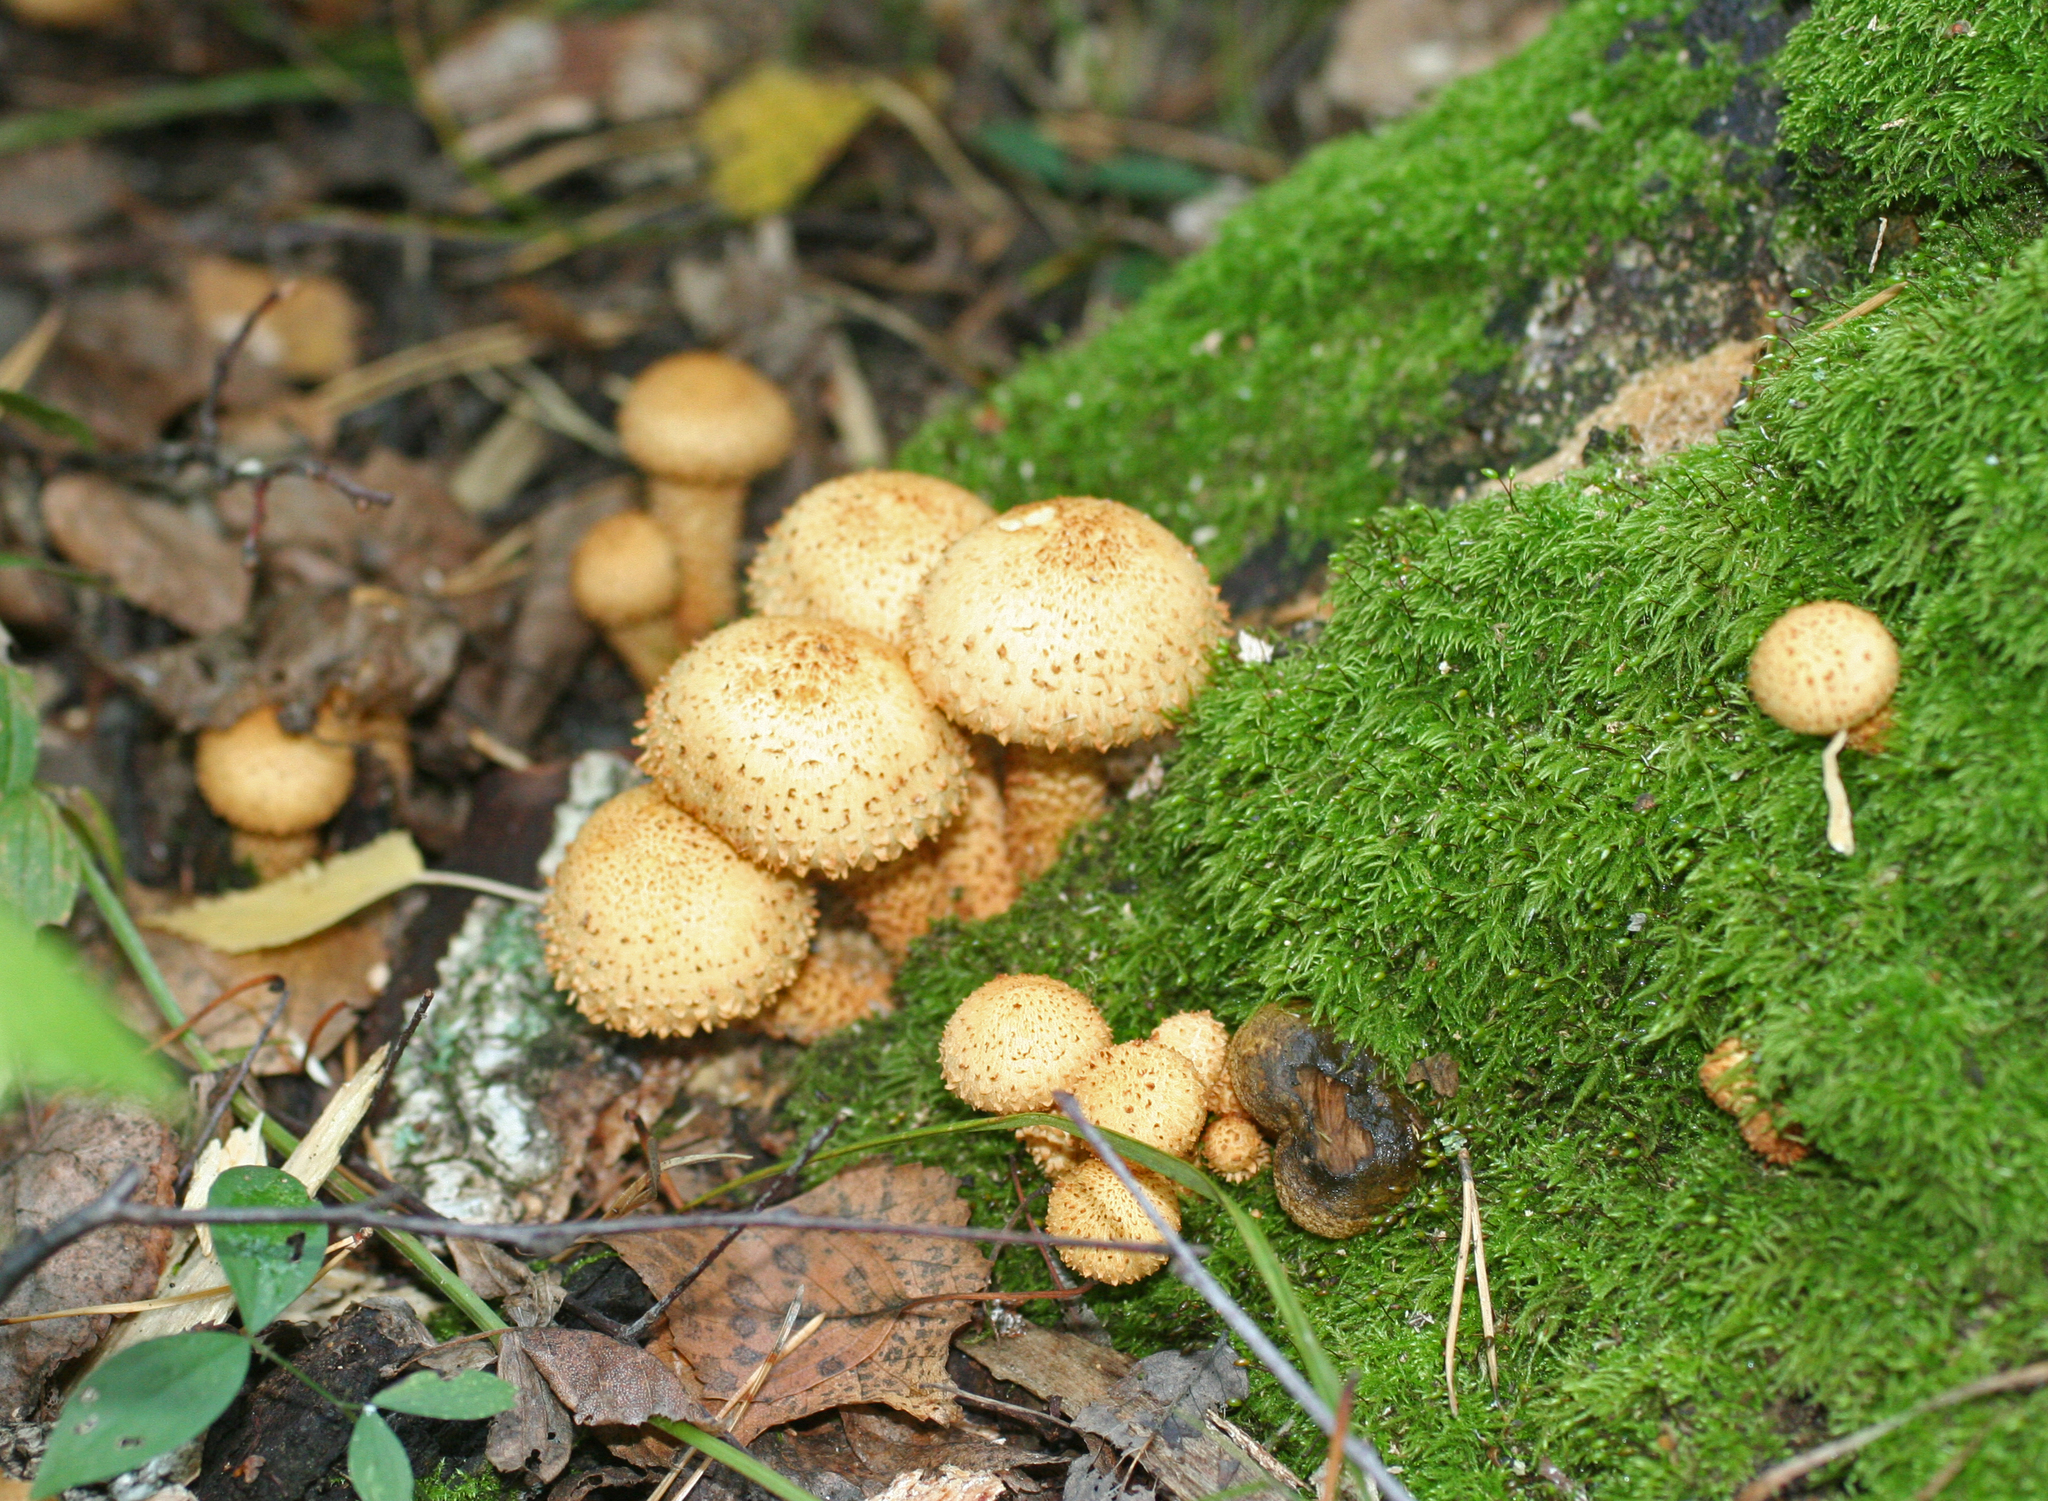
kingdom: Fungi
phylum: Basidiomycota
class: Agaricomycetes
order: Agaricales
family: Strophariaceae
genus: Pholiota
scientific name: Pholiota squarrosa
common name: Shaggy pholiota
